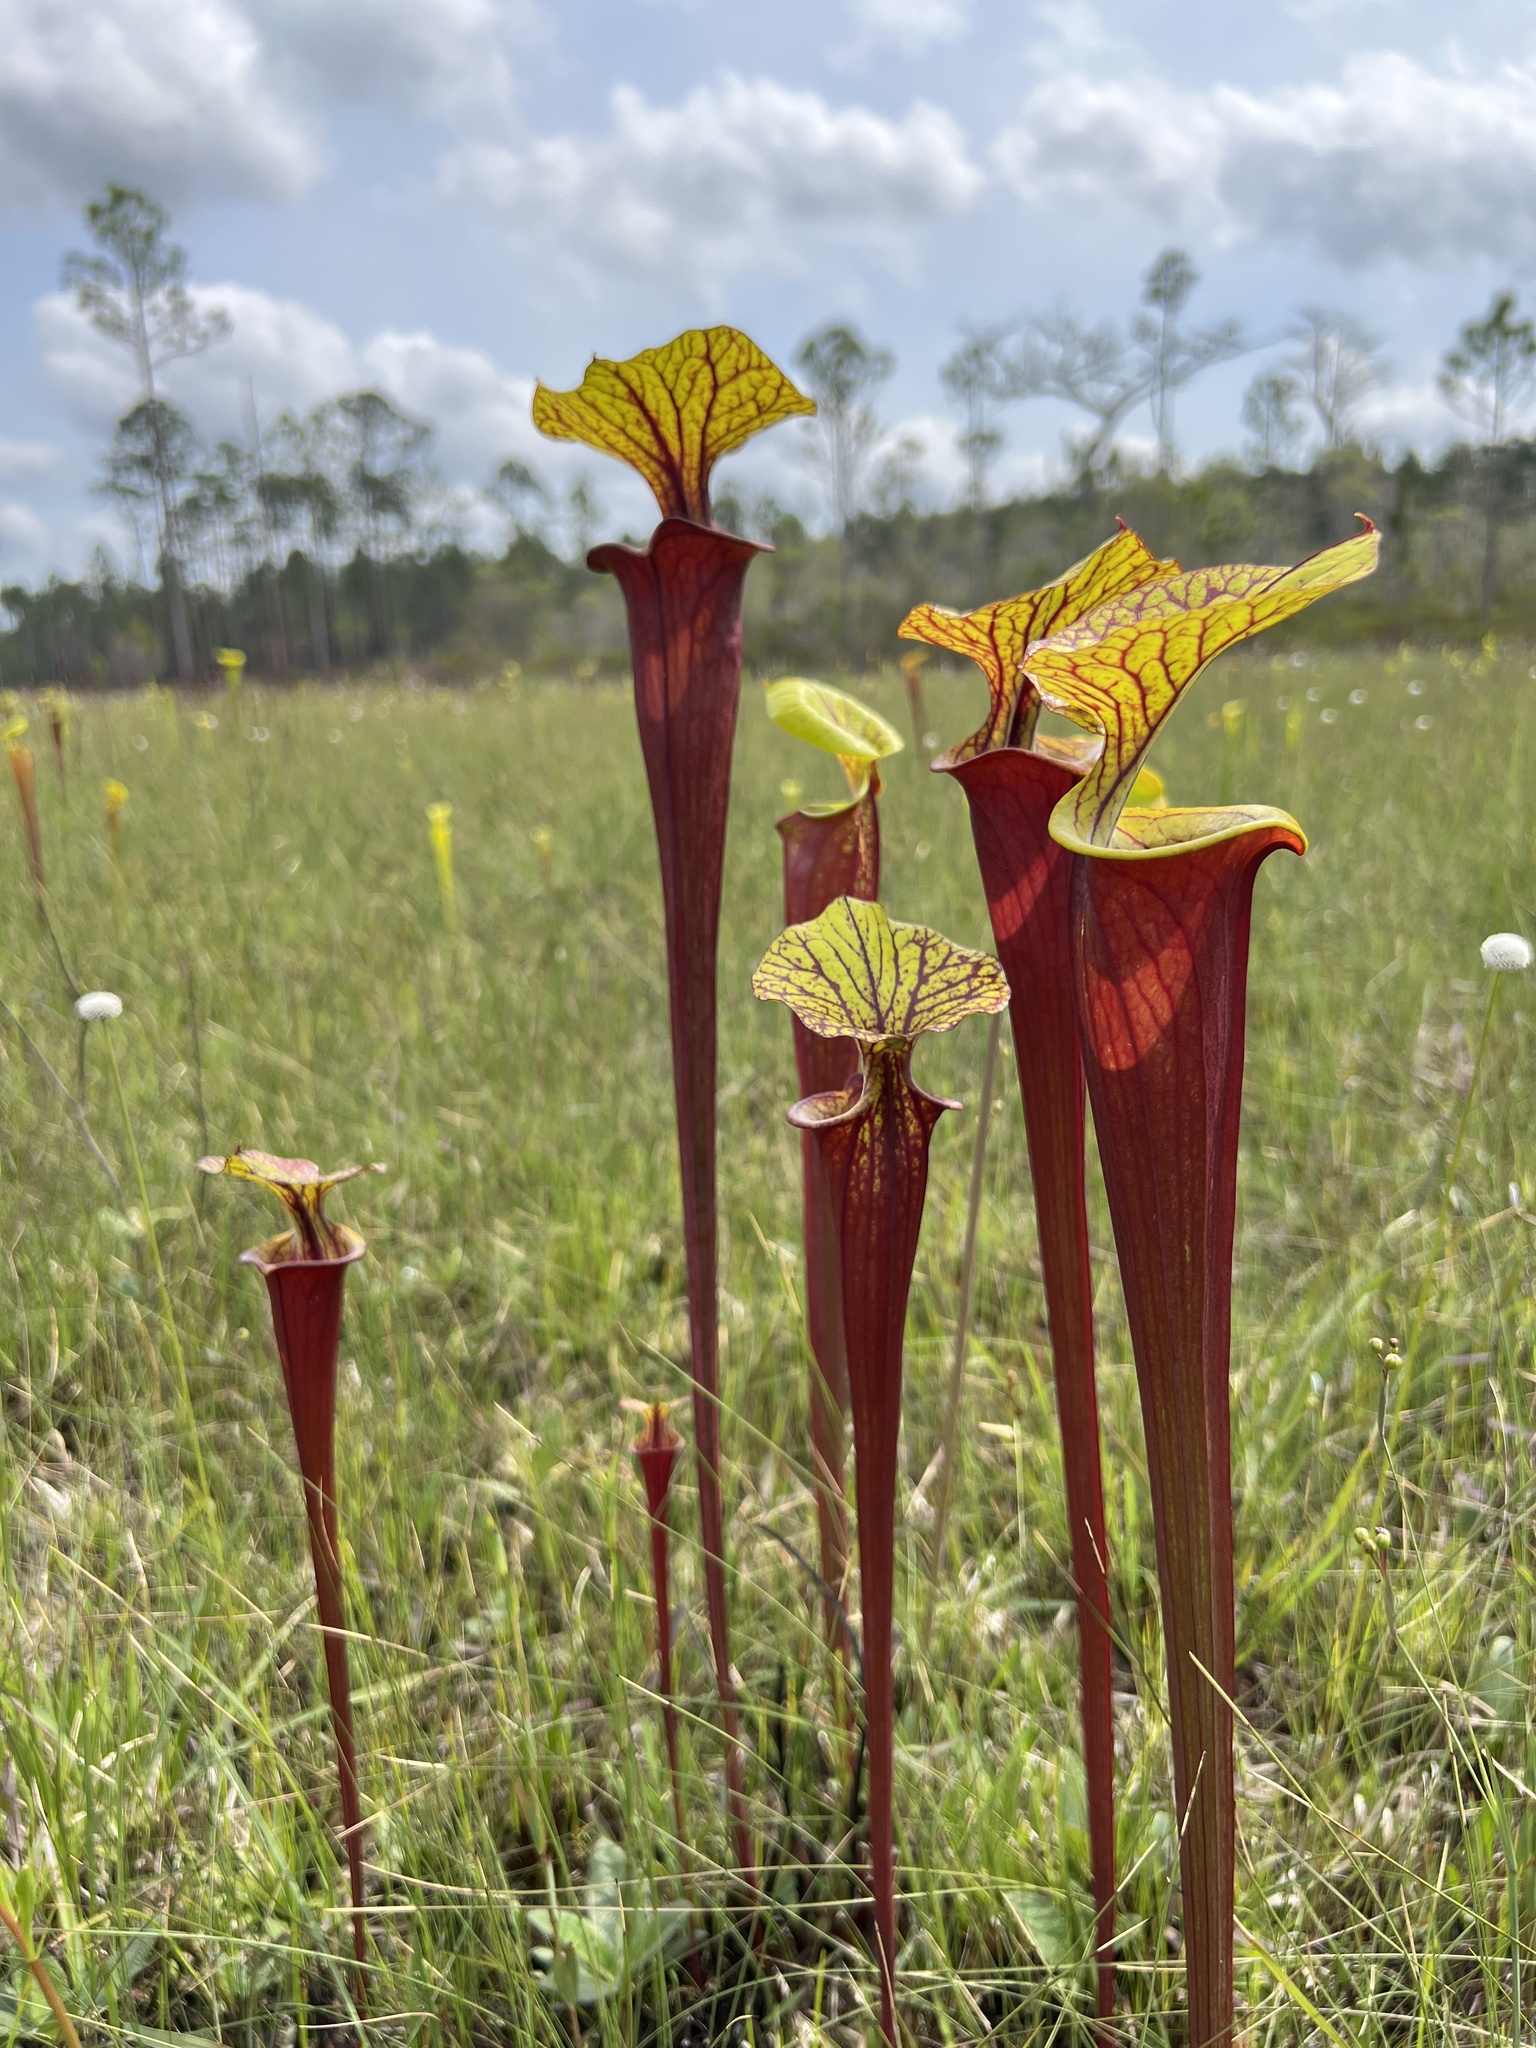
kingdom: Plantae
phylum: Tracheophyta
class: Magnoliopsida
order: Ericales
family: Sarraceniaceae
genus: Sarracenia
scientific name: Sarracenia flava
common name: Trumpets
